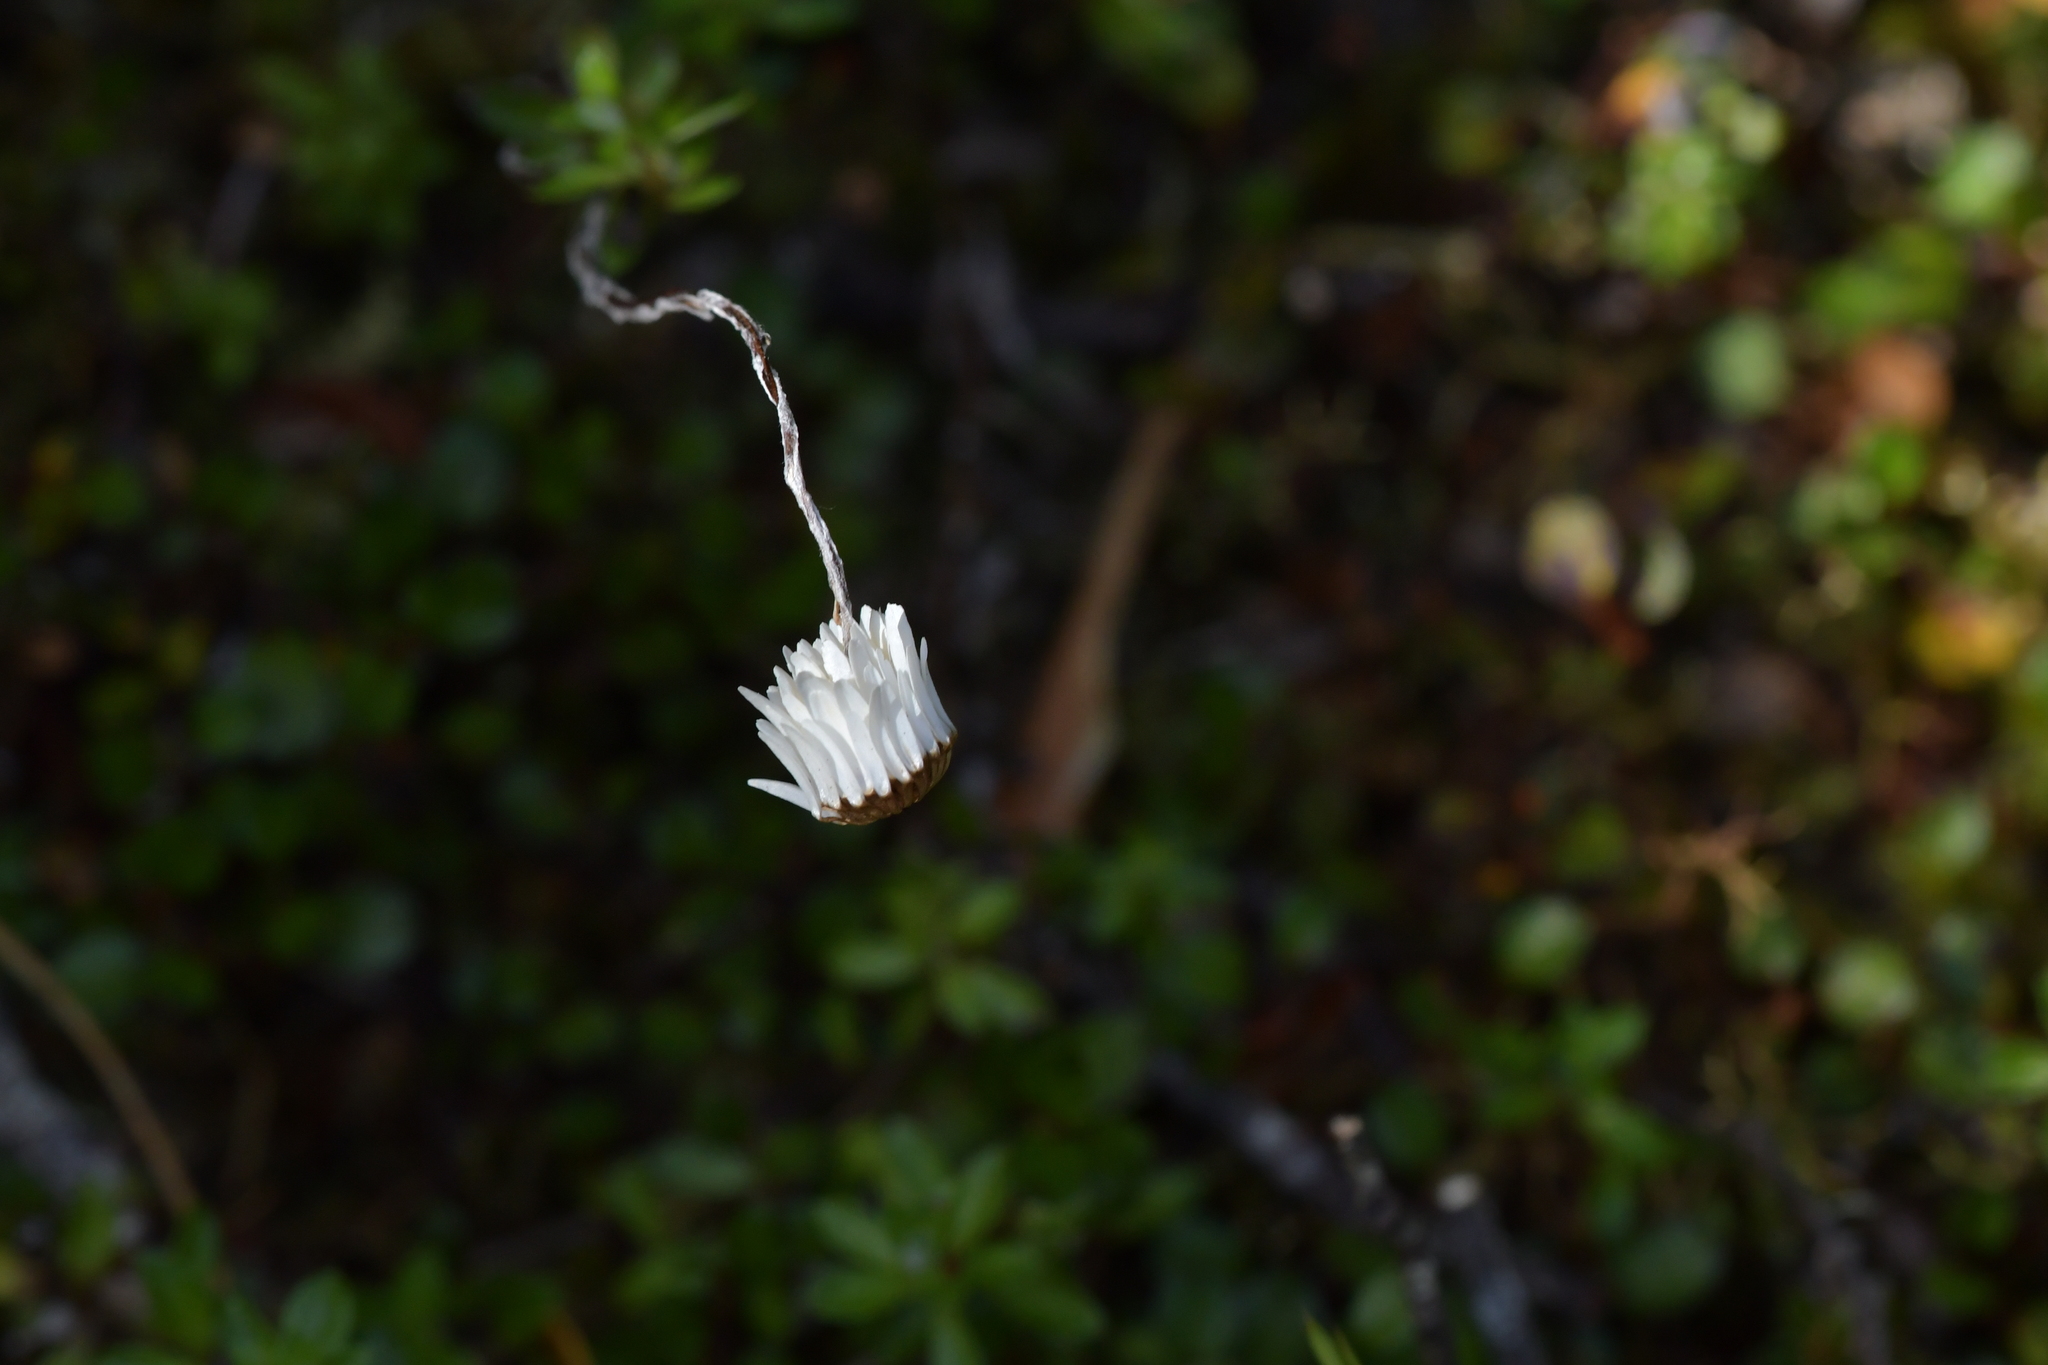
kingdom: Plantae
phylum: Tracheophyta
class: Magnoliopsida
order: Asterales
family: Asteraceae
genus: Anaphalioides
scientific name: Anaphalioides bellidioides
